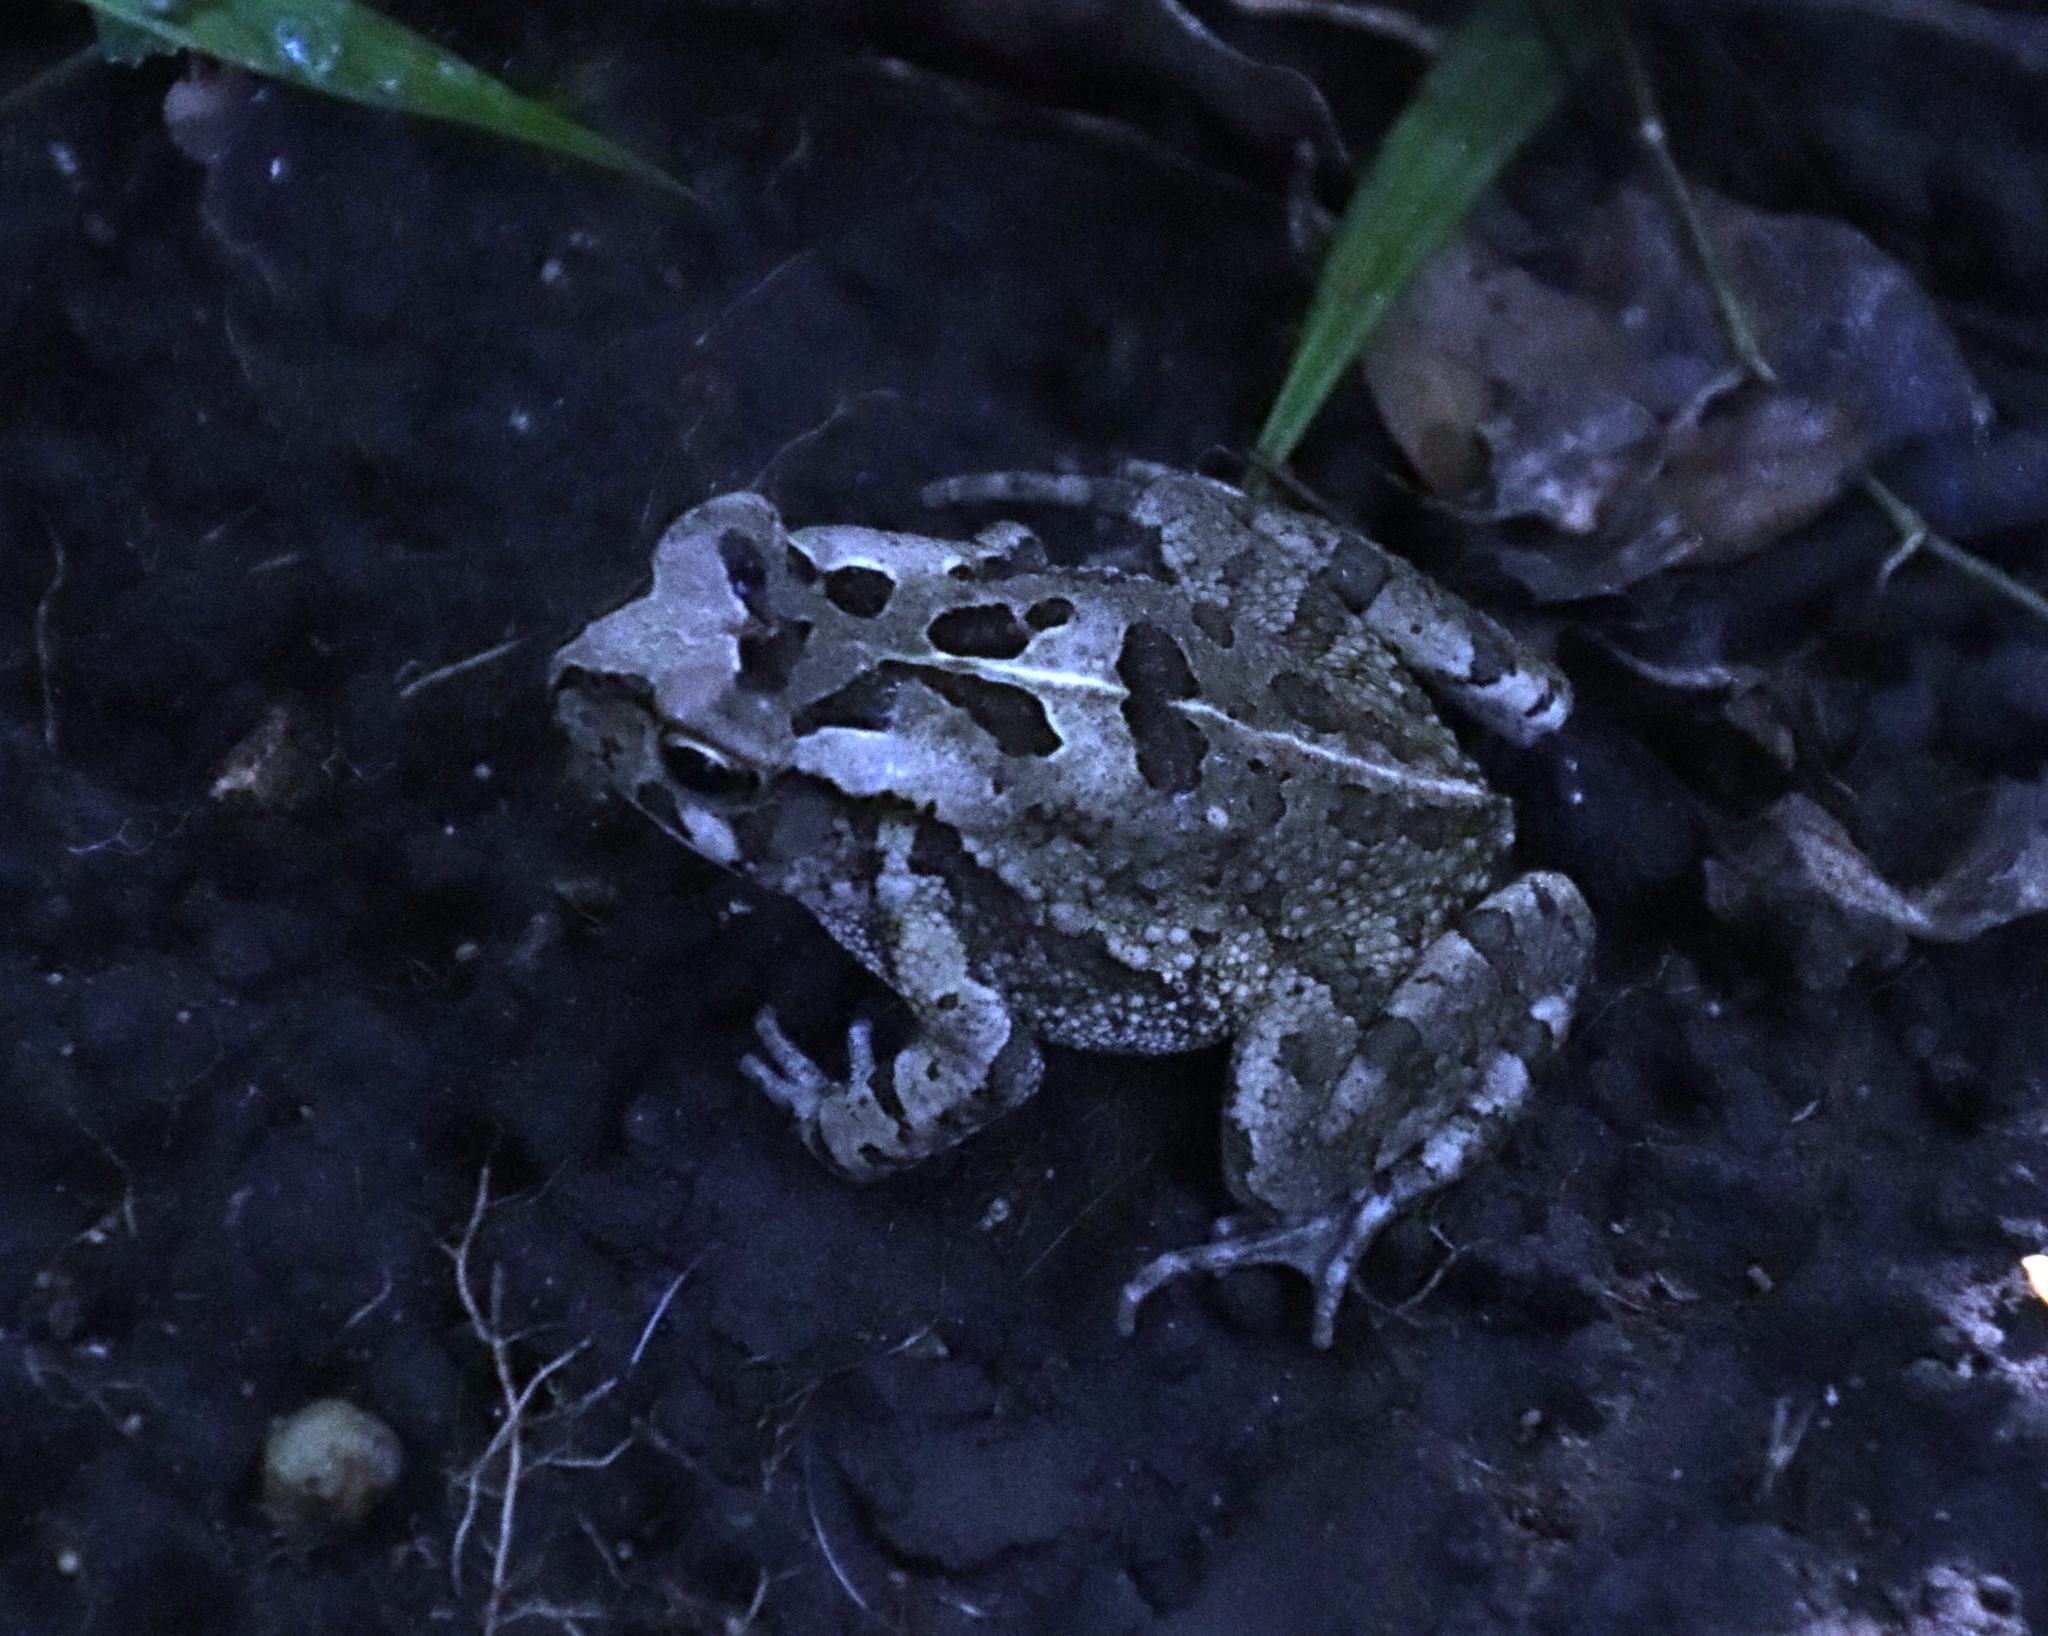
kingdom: Animalia
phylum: Chordata
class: Amphibia
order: Anura
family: Bufonidae
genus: Sclerophrys
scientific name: Sclerophrys capensis
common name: Ranger’s toad
